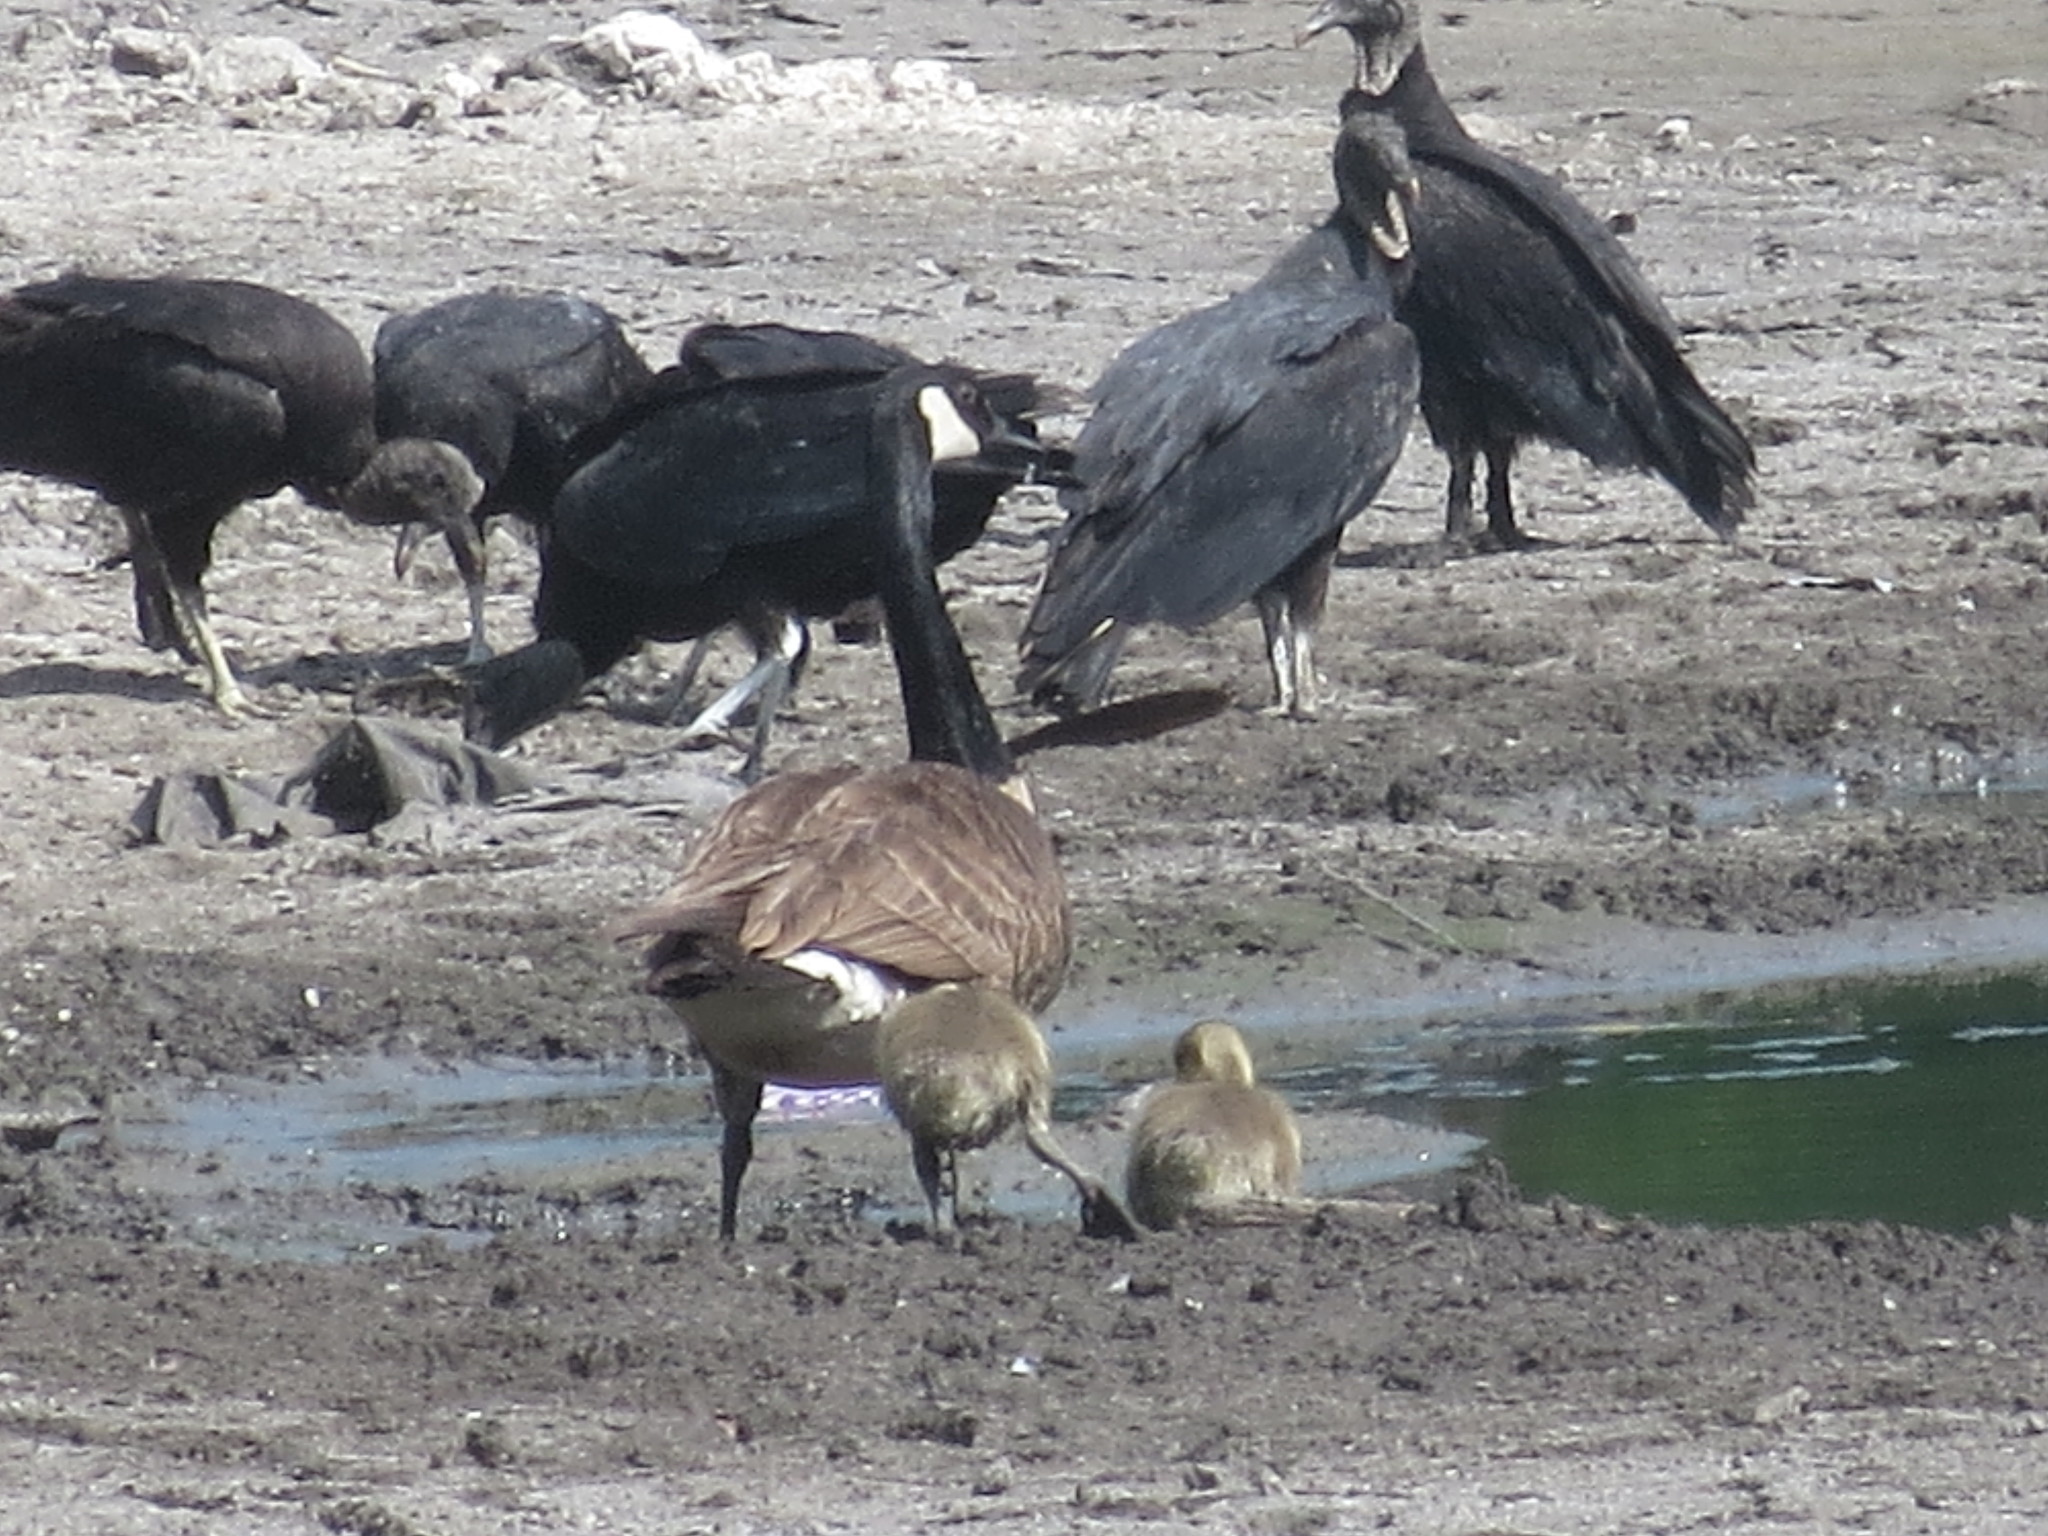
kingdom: Animalia
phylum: Chordata
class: Aves
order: Accipitriformes
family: Cathartidae
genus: Coragyps
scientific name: Coragyps atratus
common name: Black vulture
